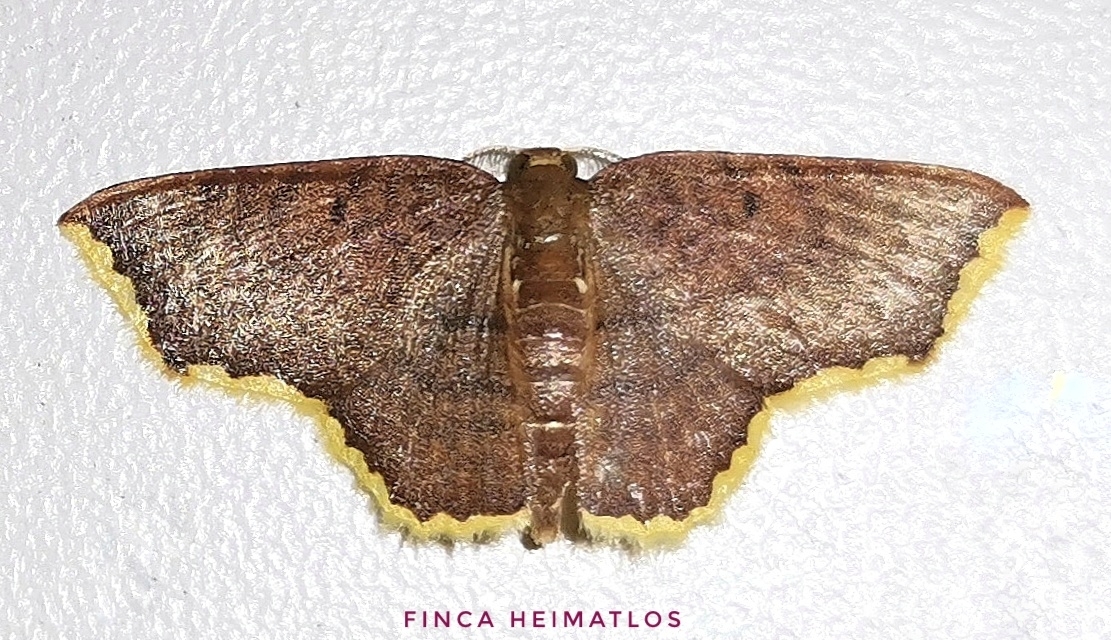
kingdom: Animalia
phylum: Arthropoda
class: Insecta
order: Lepidoptera
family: Geometridae
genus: Eois
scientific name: Eois catana
